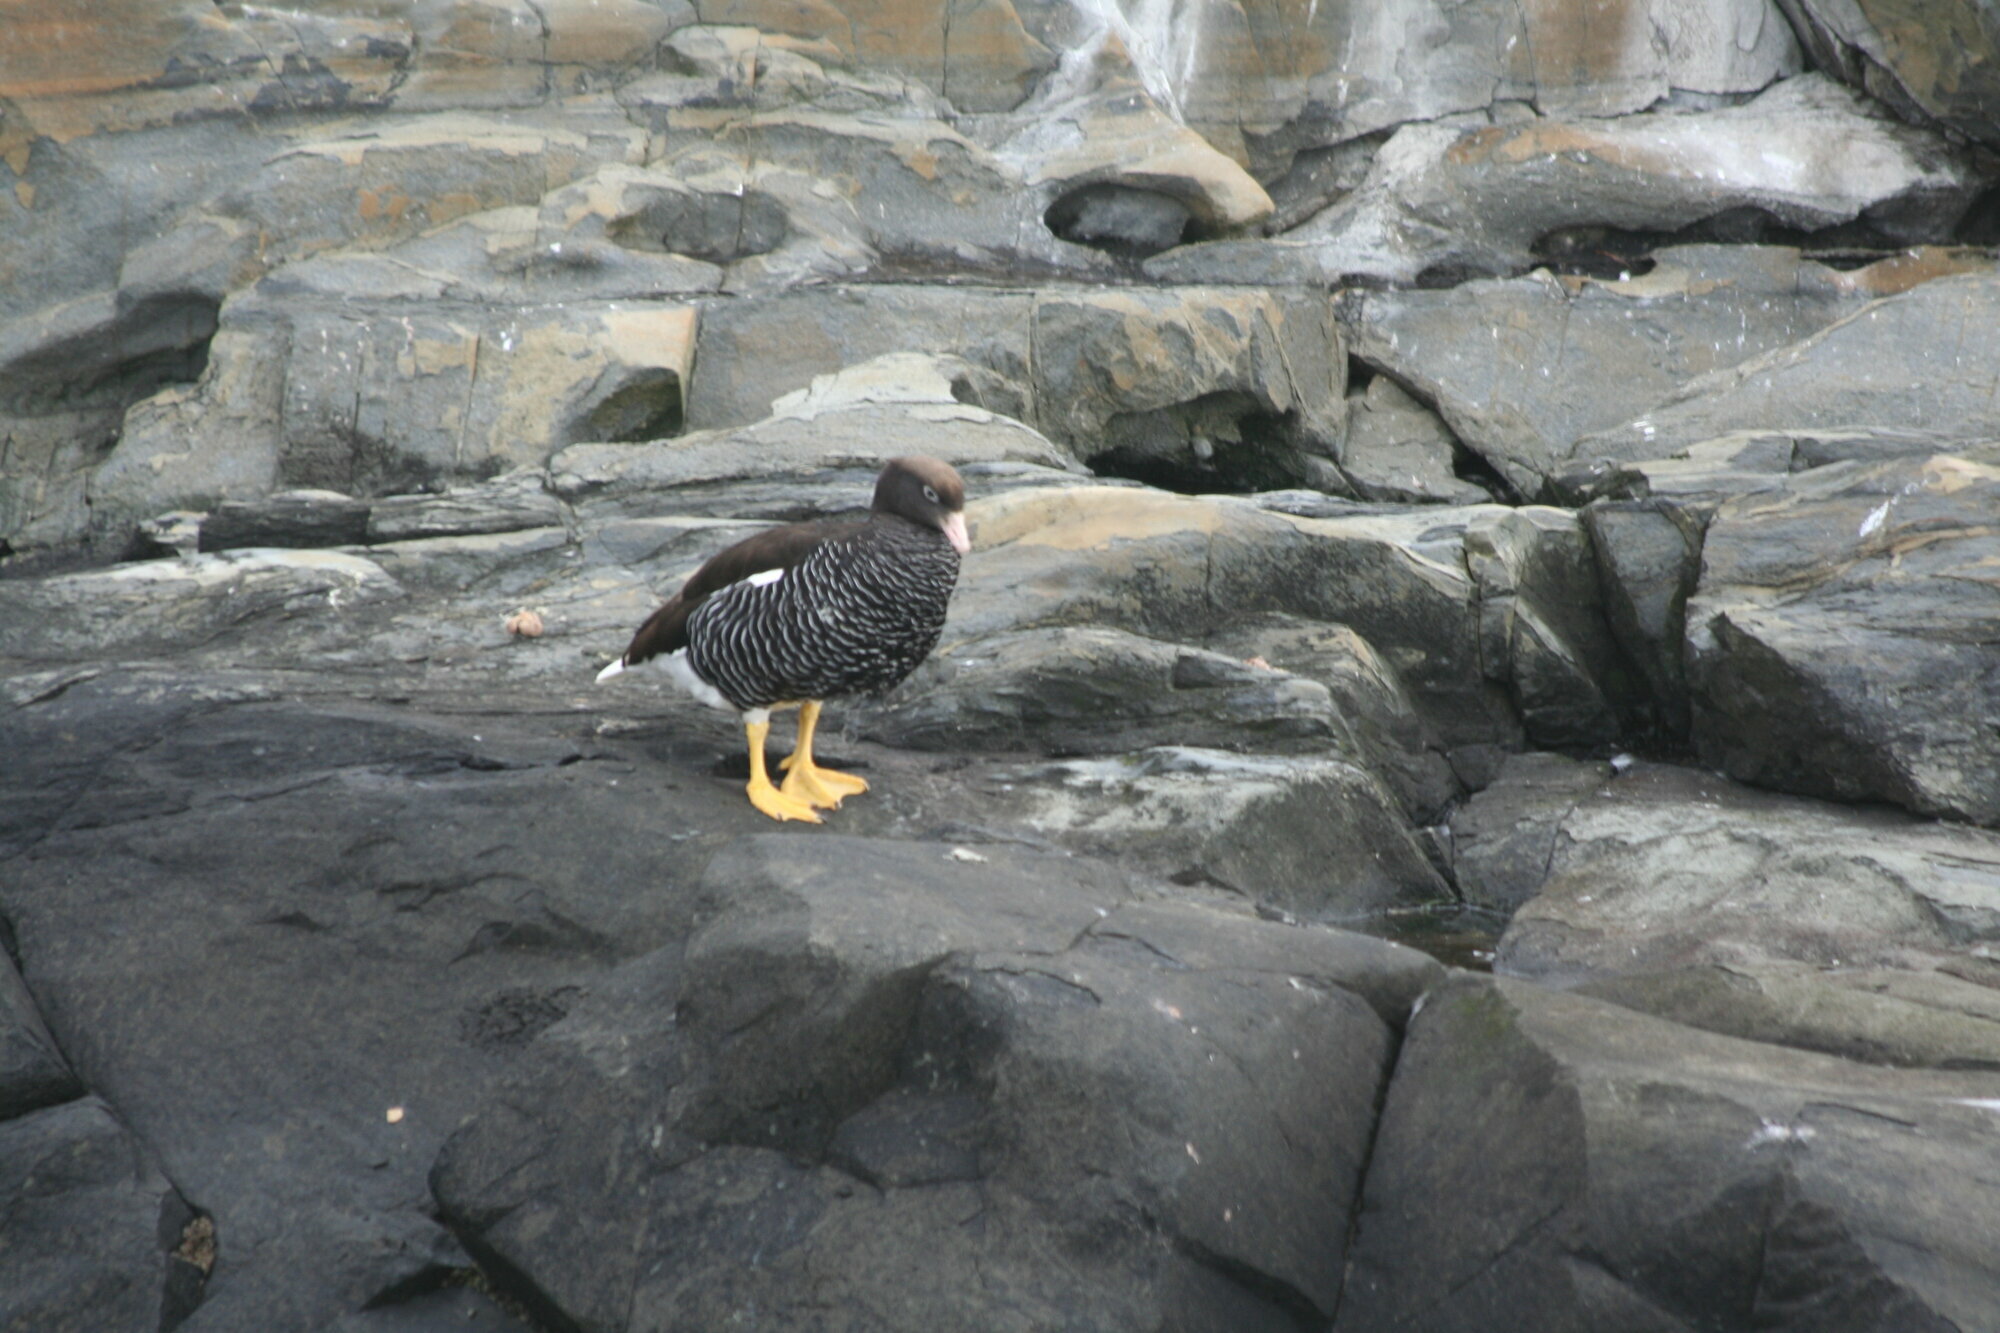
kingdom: Animalia
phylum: Chordata
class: Aves
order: Anseriformes
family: Anatidae
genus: Chloephaga
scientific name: Chloephaga hybrida
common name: Kelp goose
